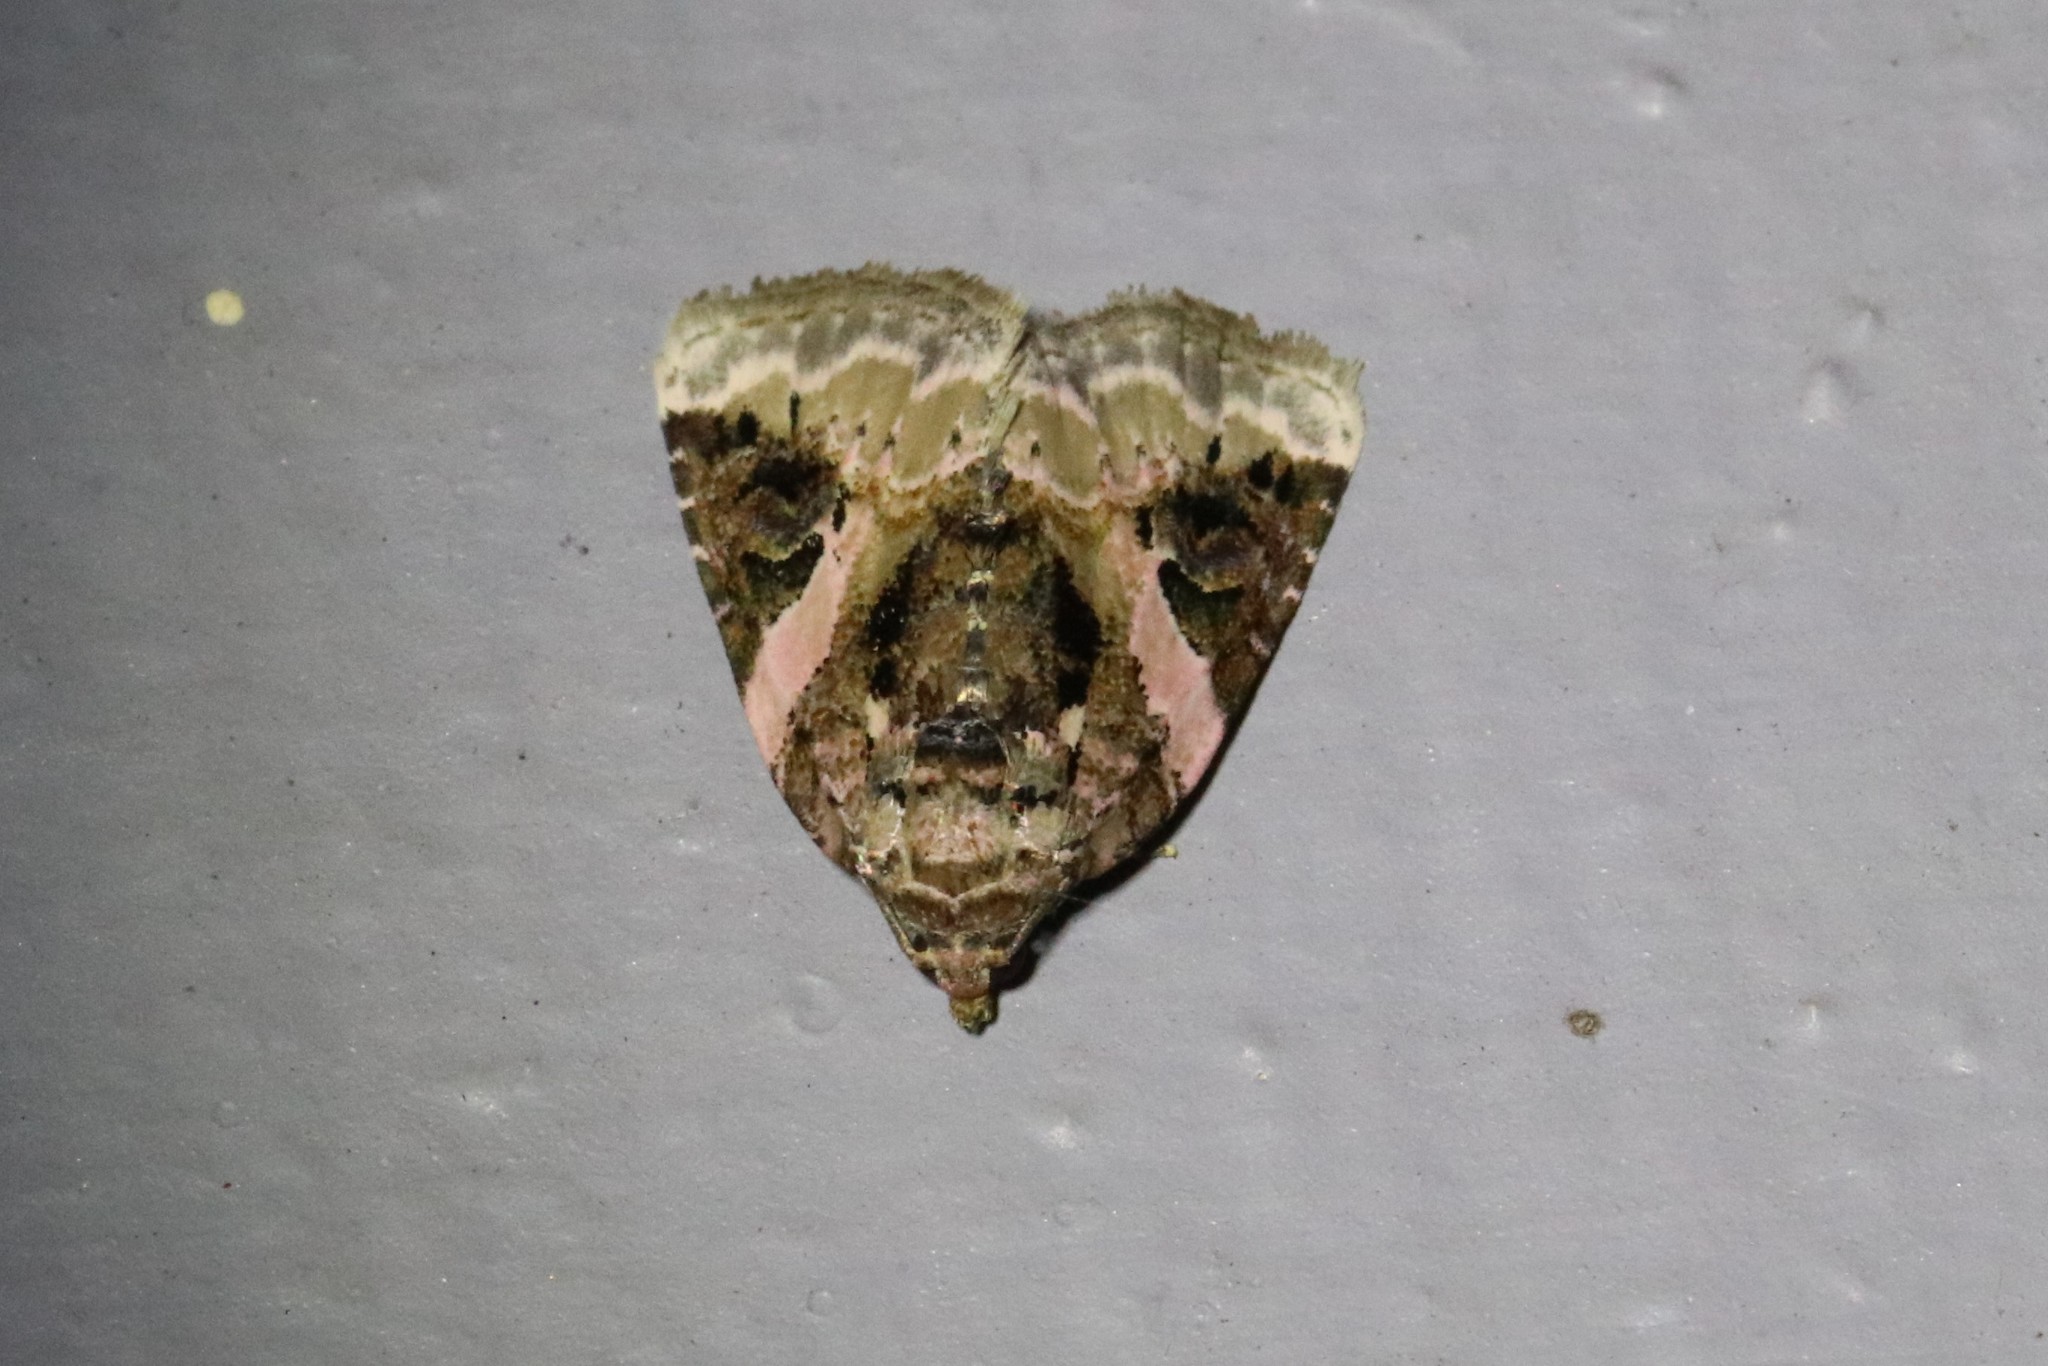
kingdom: Animalia
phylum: Arthropoda
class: Insecta
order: Lepidoptera
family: Noctuidae
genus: Pseudeustrotia
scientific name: Pseudeustrotia carneola
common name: Pink-barred lithacodia moth
